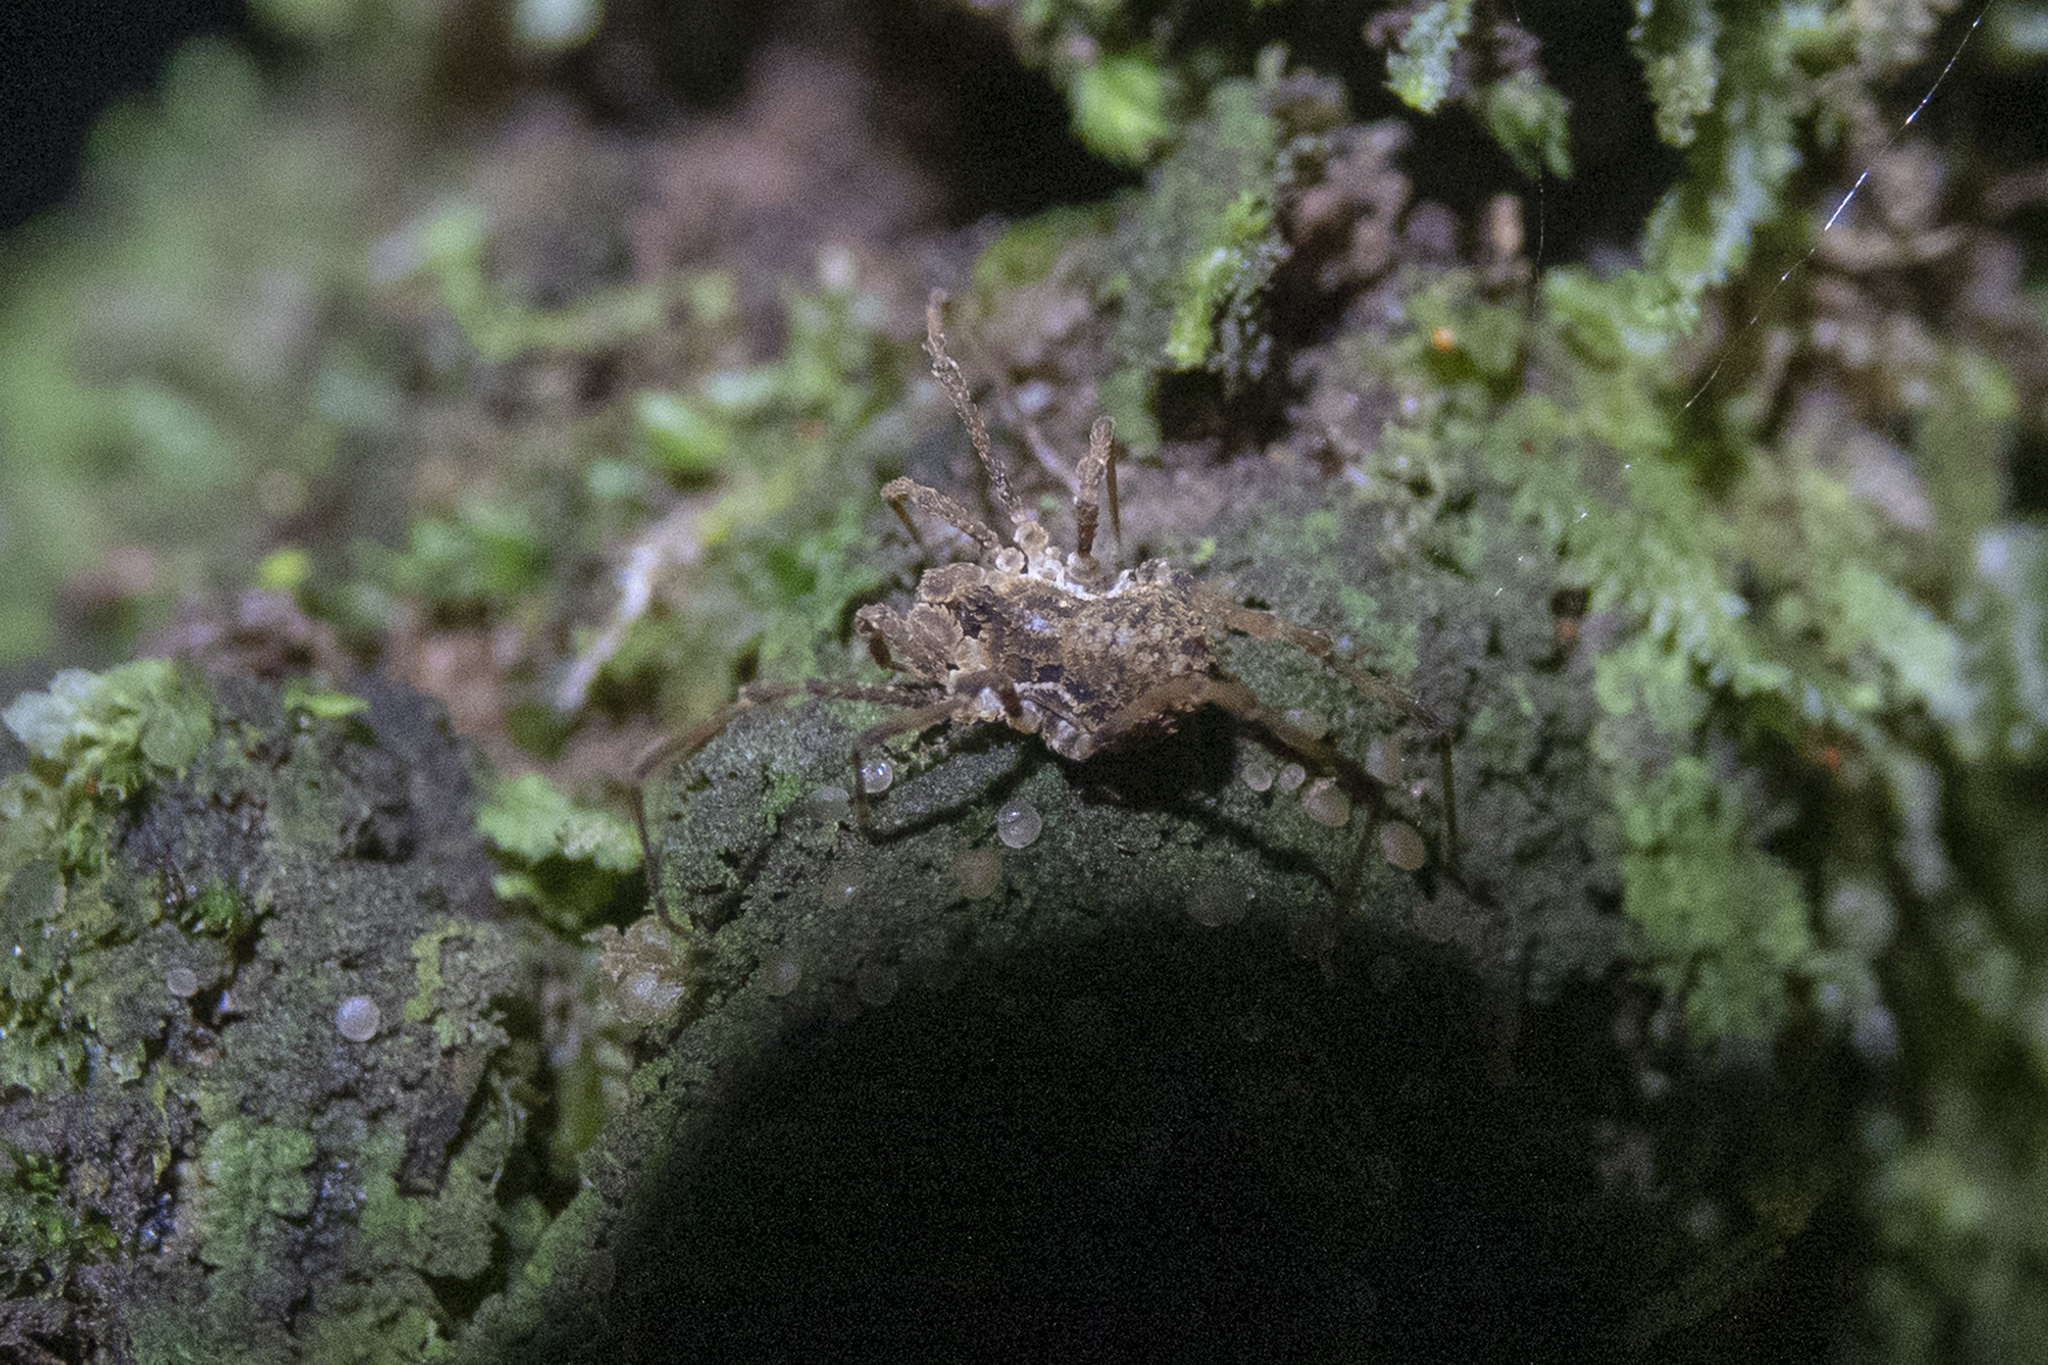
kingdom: Animalia
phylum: Arthropoda
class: Arachnida
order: Opiliones
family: Triaenonychidae
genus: Pristobunus
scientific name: Pristobunus acentrus
